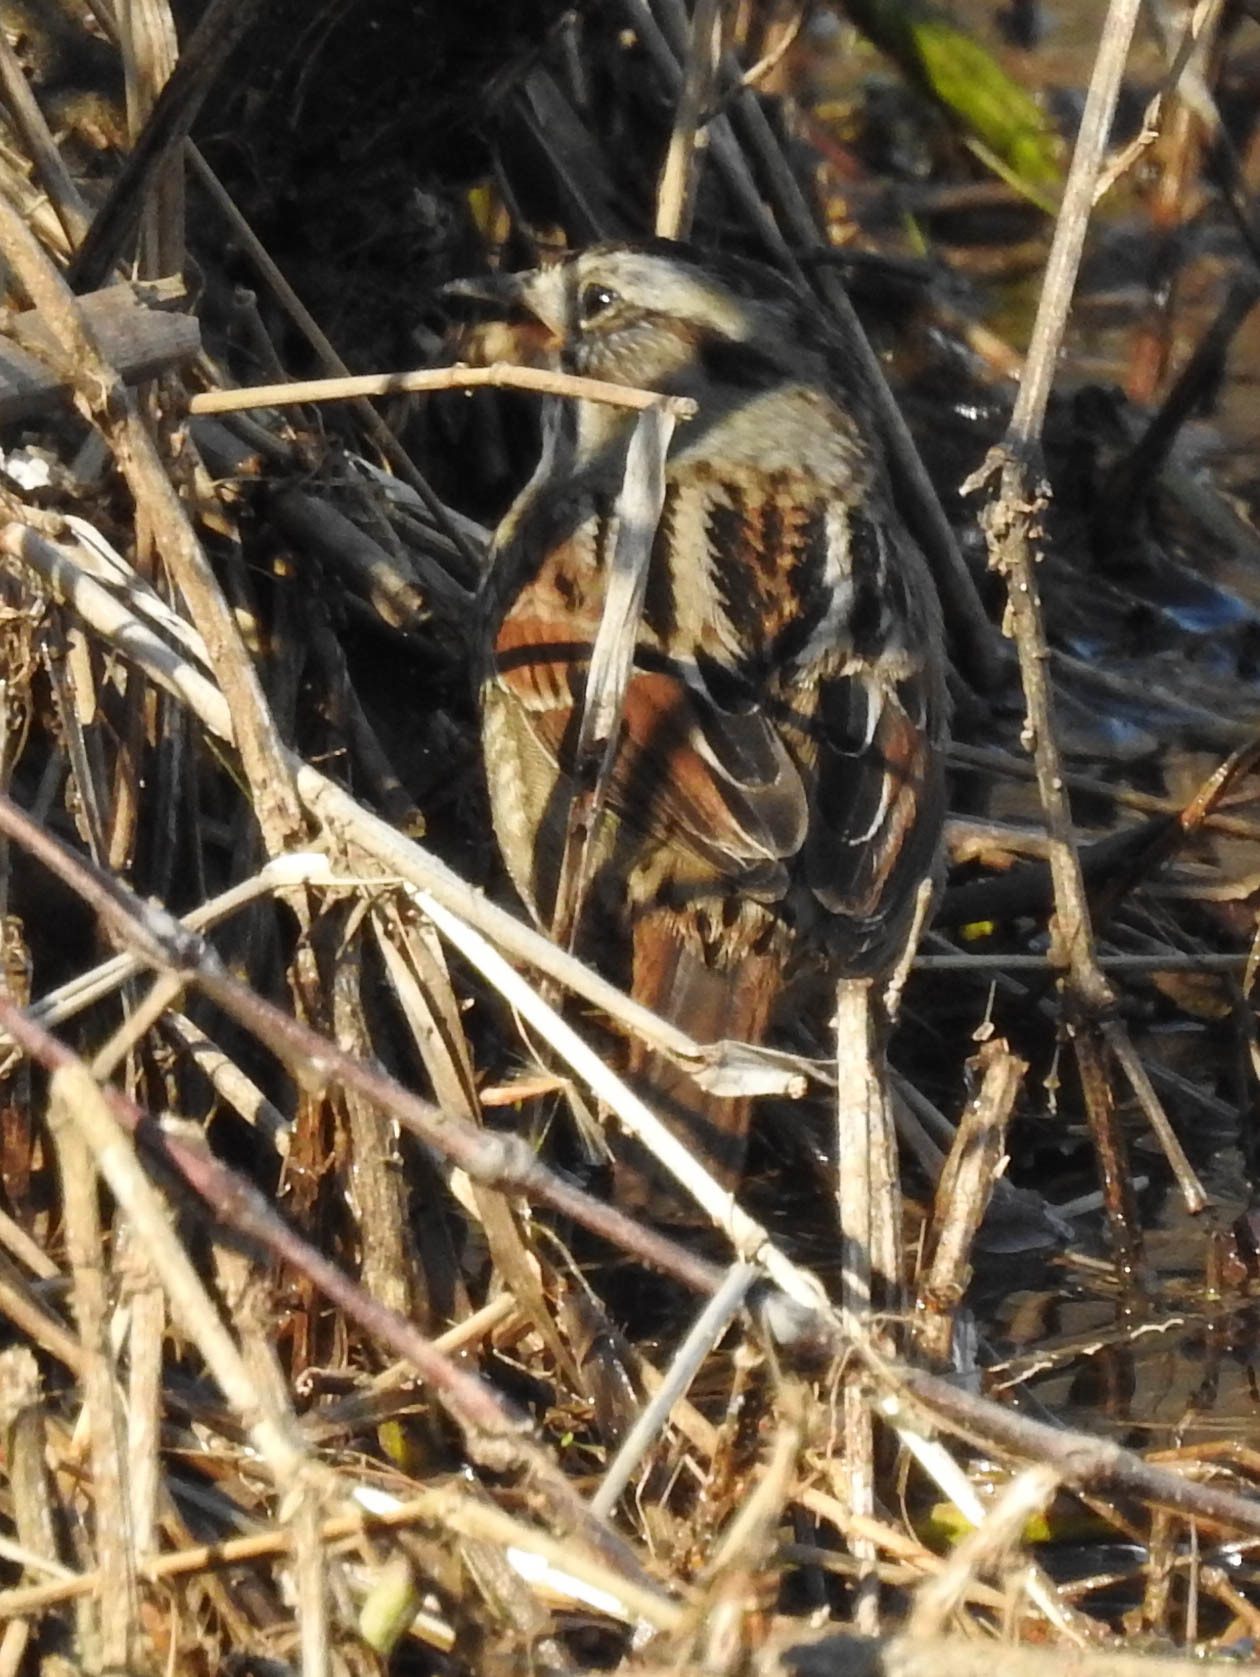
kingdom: Animalia
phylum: Chordata
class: Aves
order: Passeriformes
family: Passerellidae
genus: Melospiza
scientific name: Melospiza georgiana
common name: Swamp sparrow
